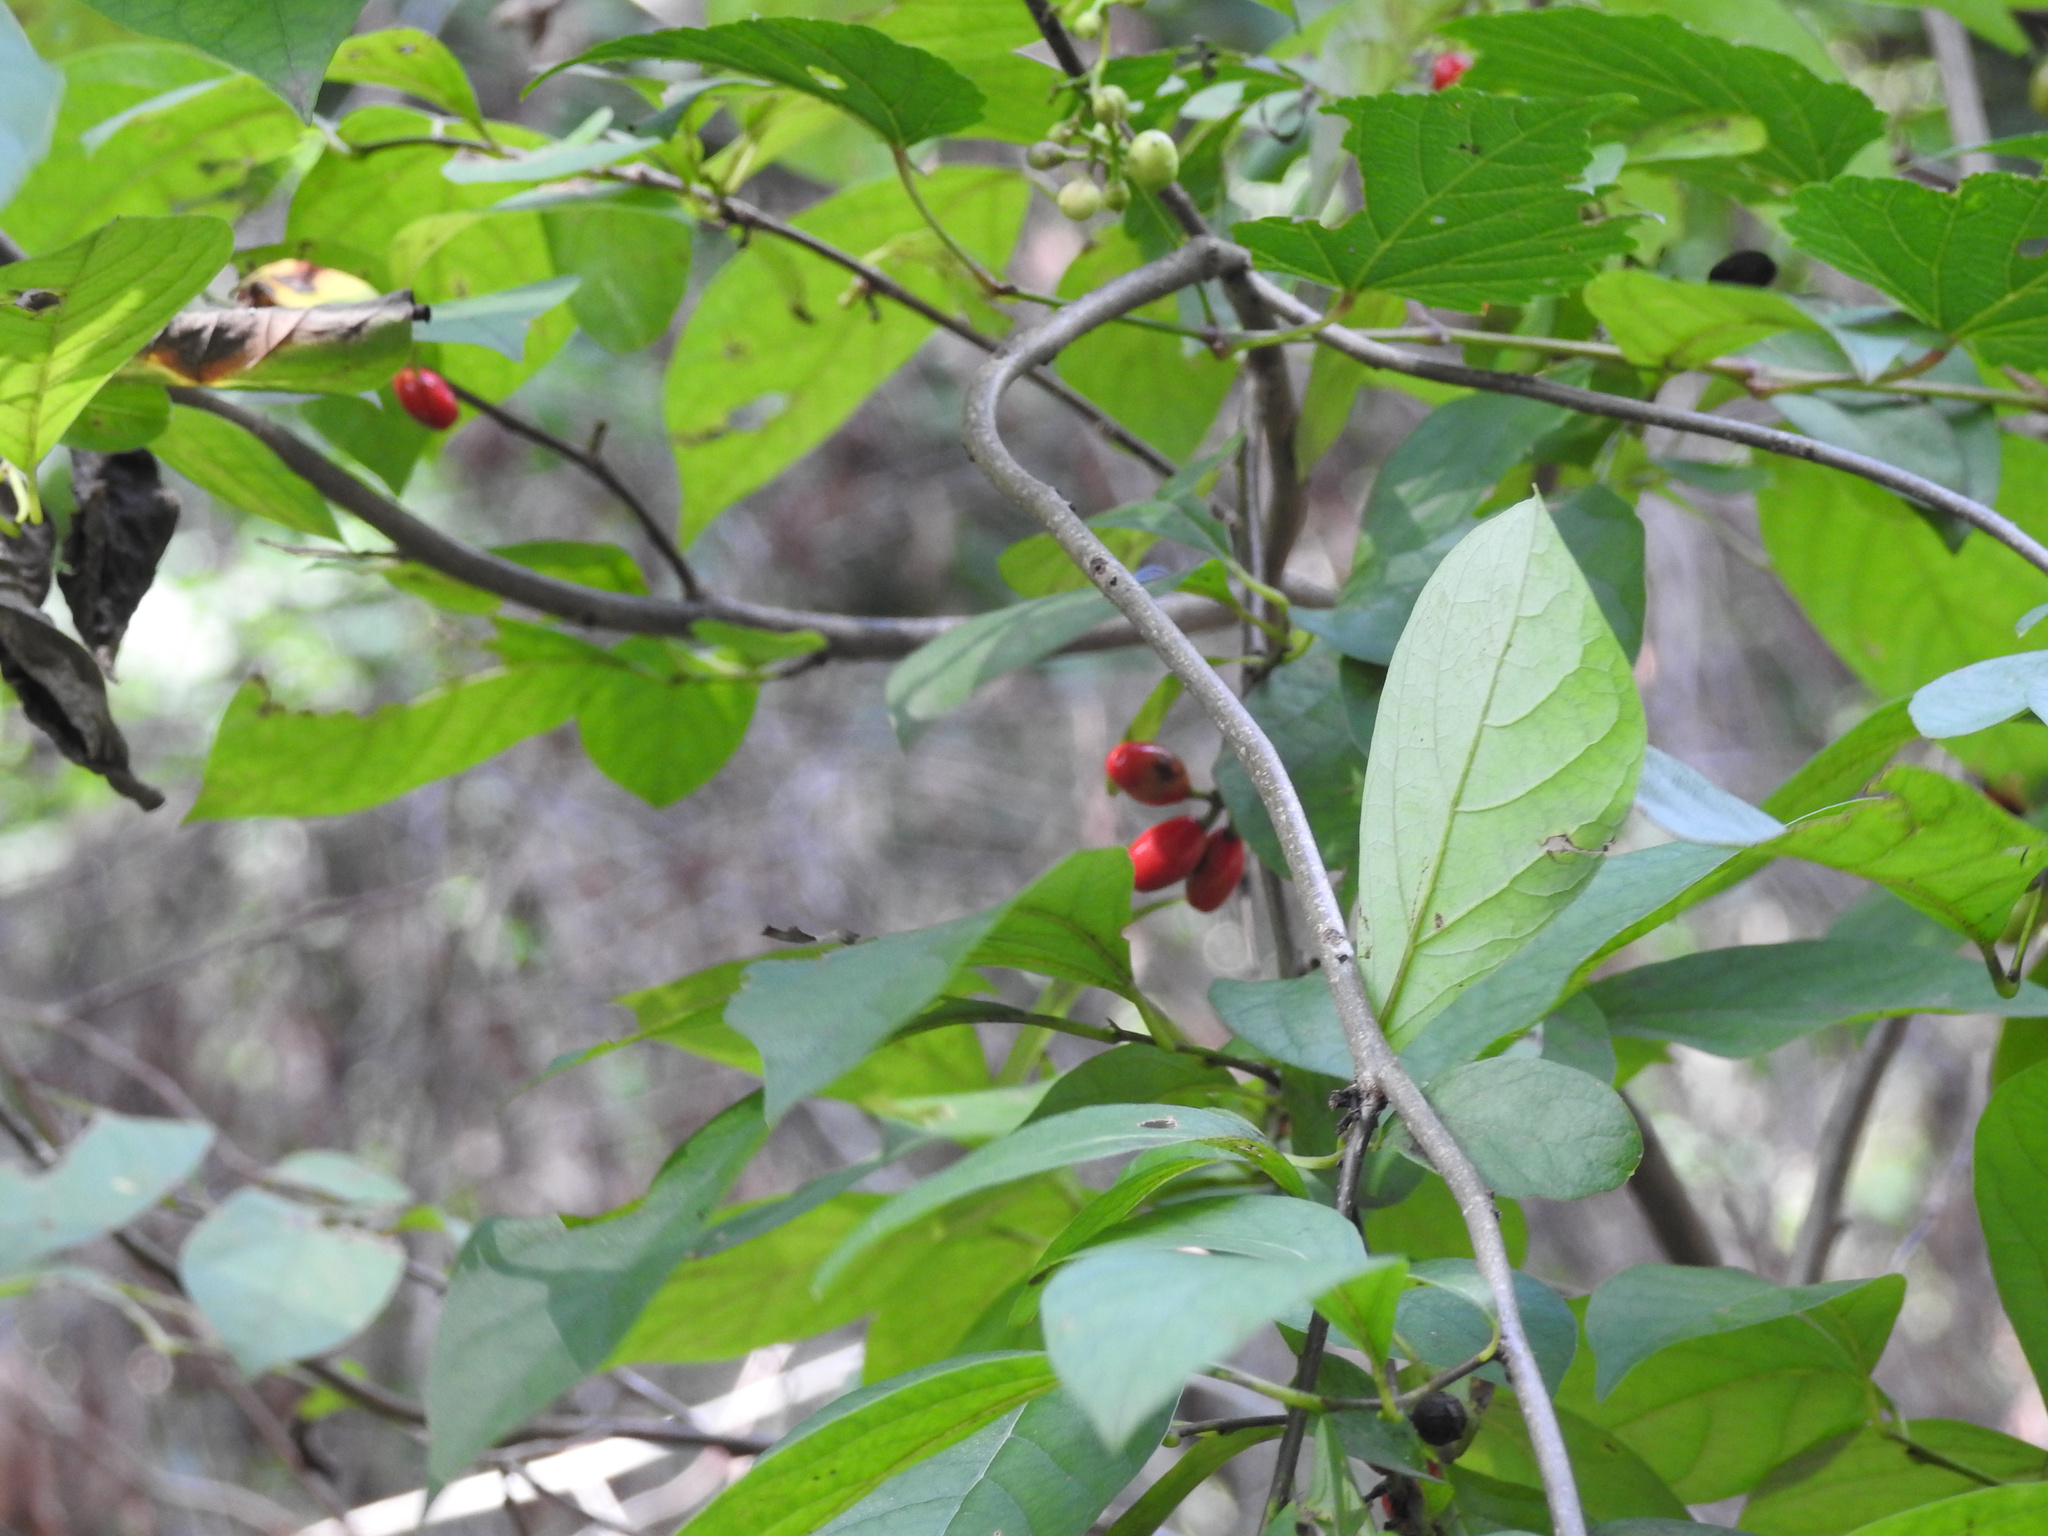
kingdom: Plantae
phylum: Tracheophyta
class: Magnoliopsida
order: Laurales
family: Lauraceae
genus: Lindera
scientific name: Lindera benzoin
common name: Spicebush
